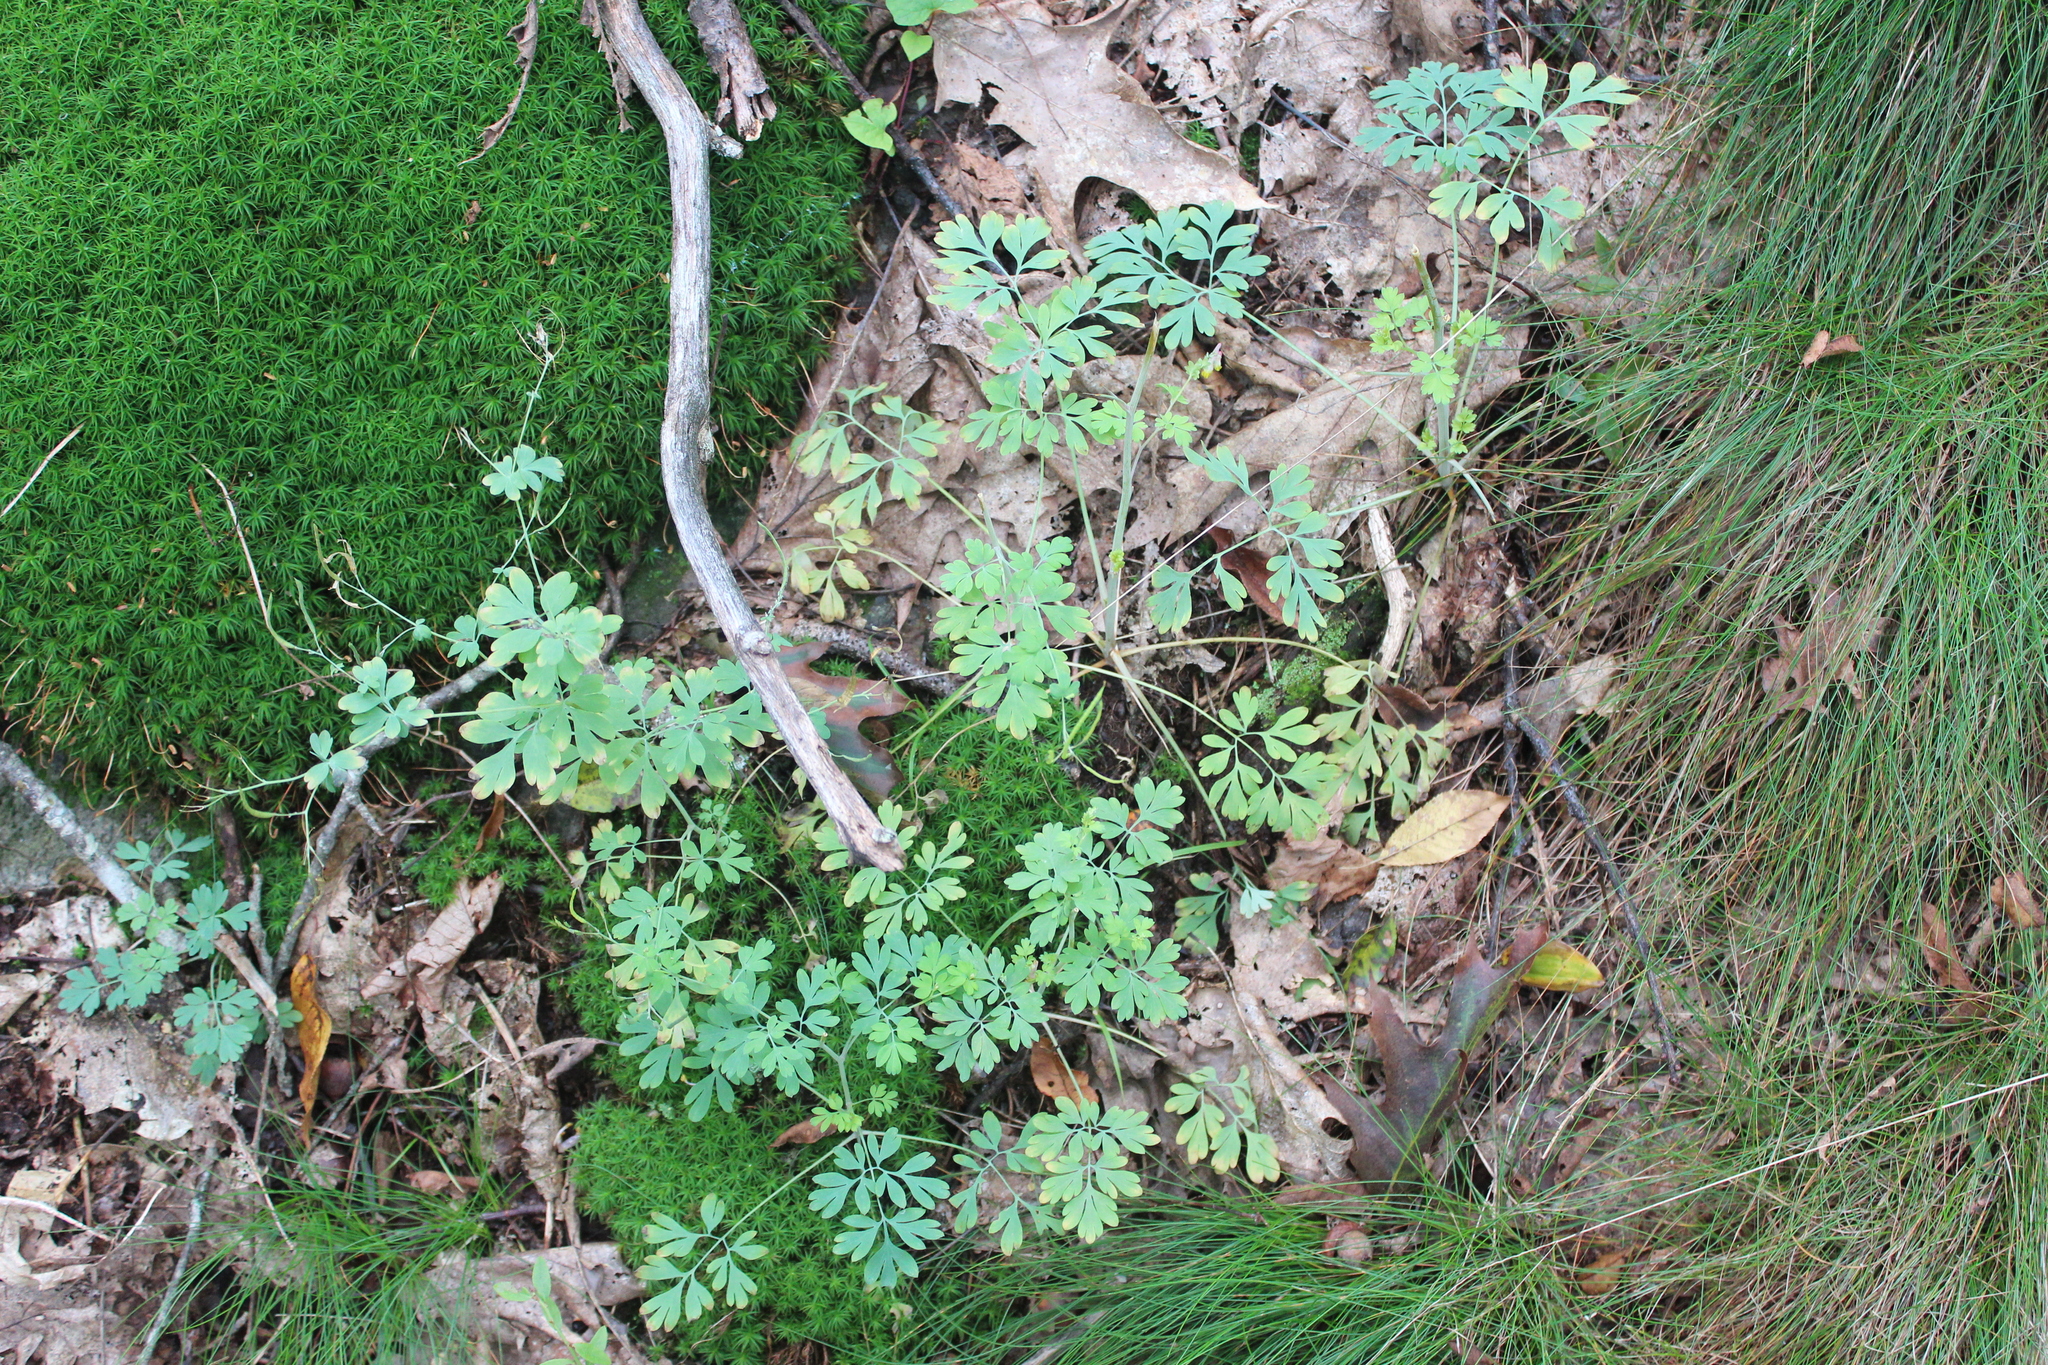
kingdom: Plantae
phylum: Tracheophyta
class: Magnoliopsida
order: Ranunculales
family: Papaveraceae
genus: Capnoides
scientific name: Capnoides sempervirens
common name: Rock harlequin
